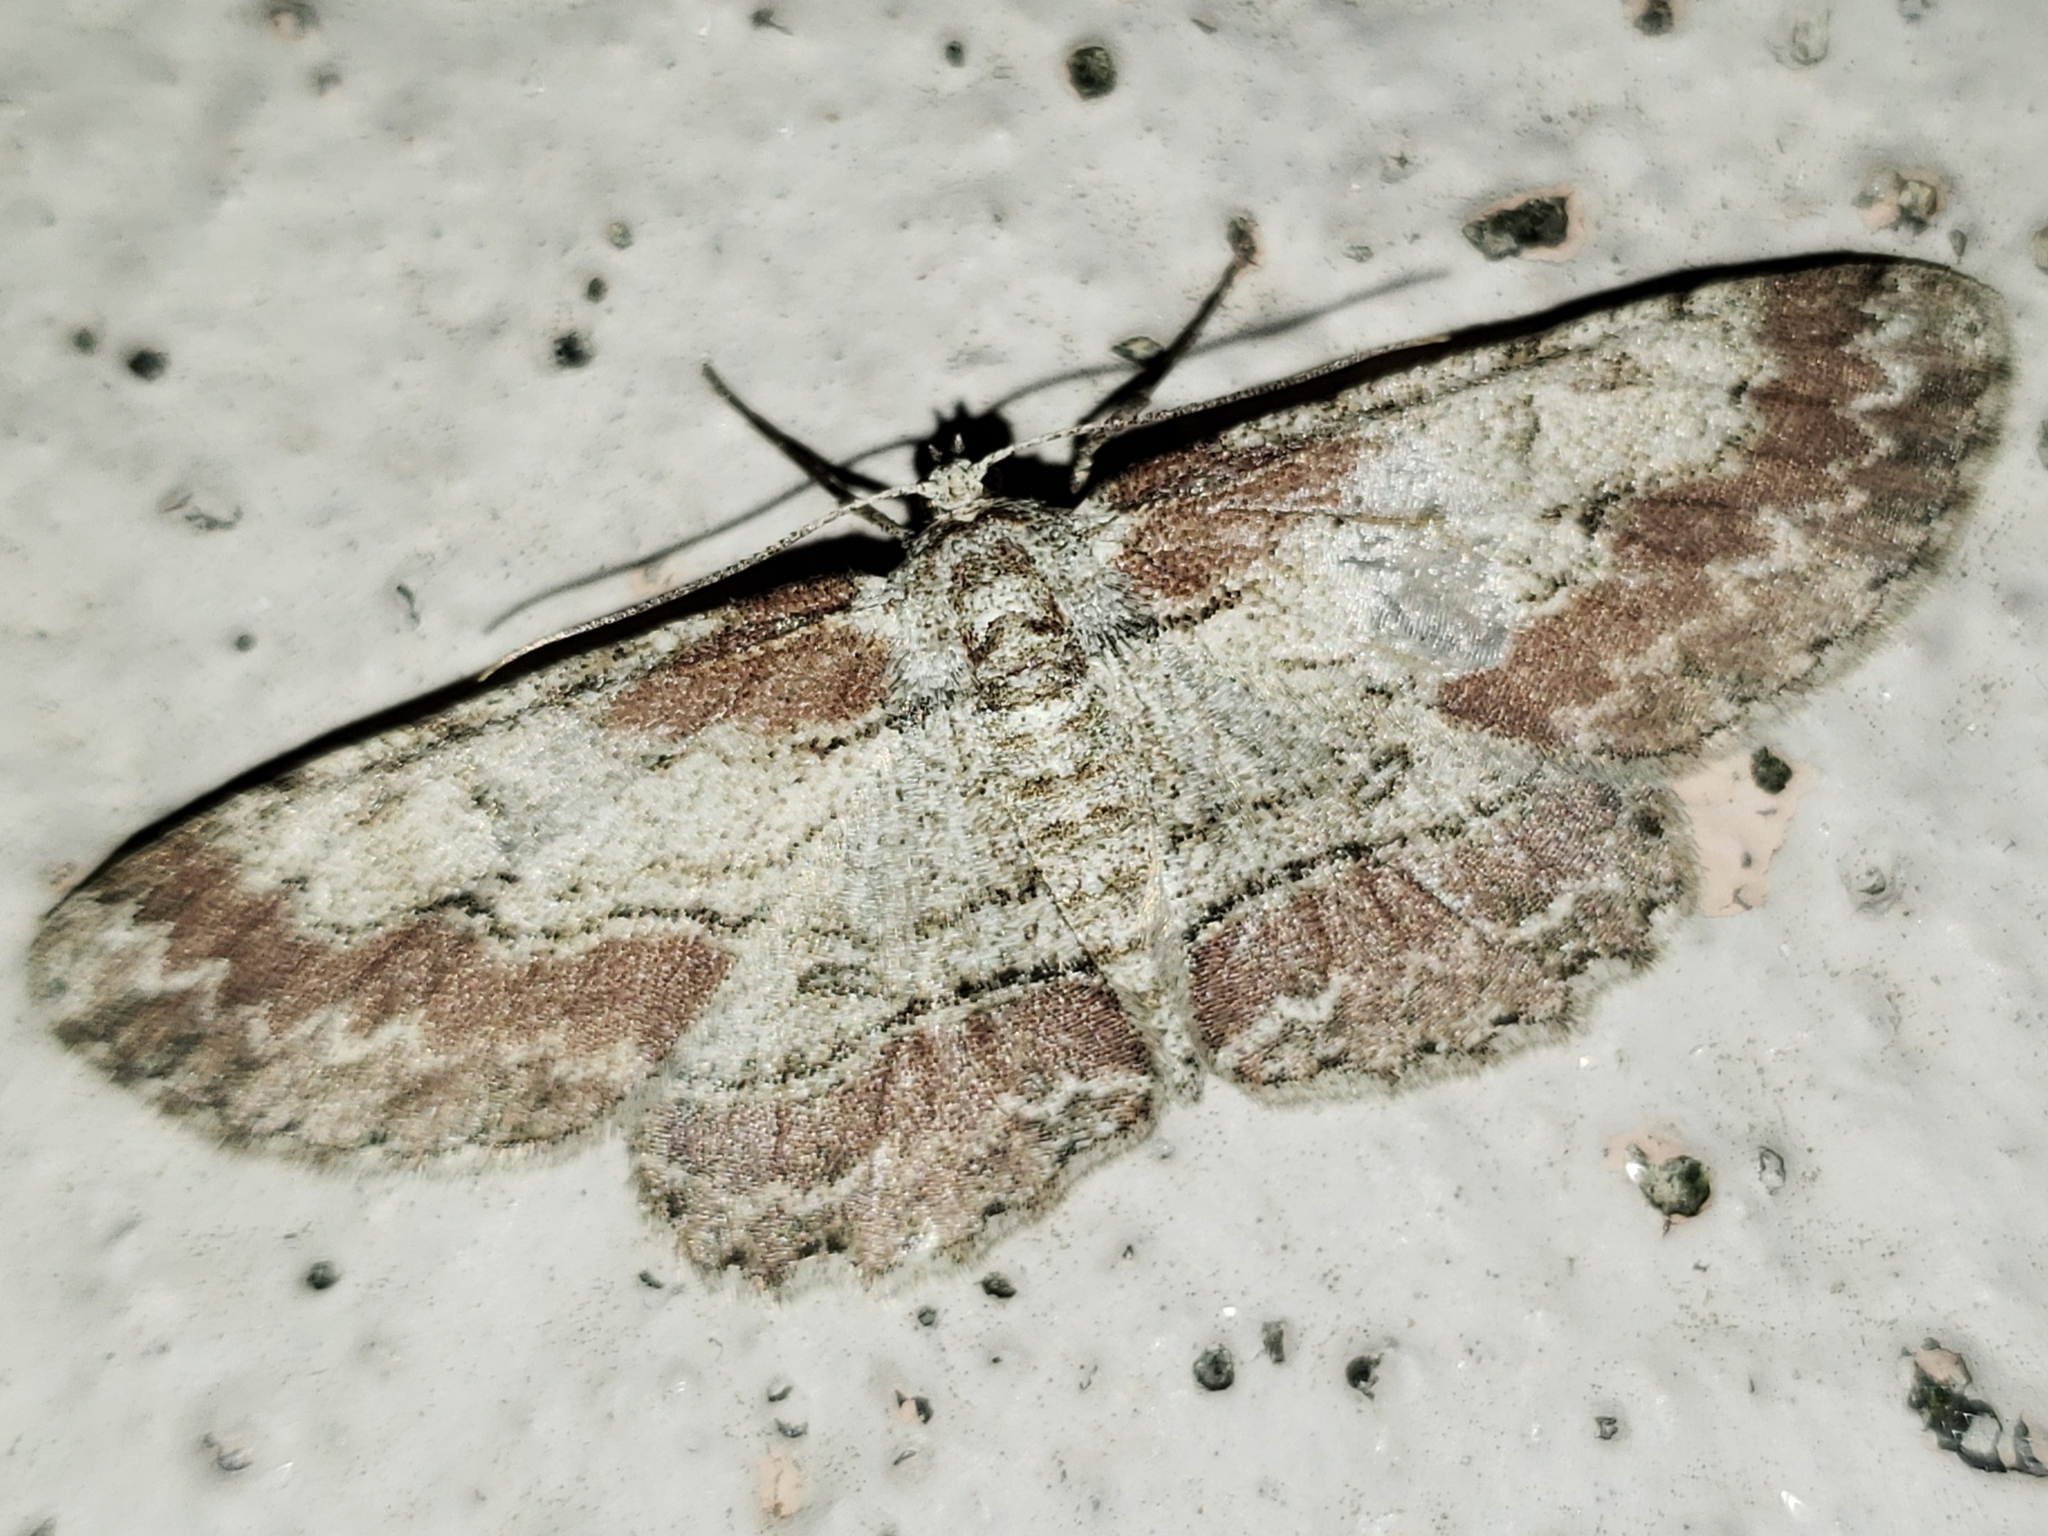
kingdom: Animalia
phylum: Arthropoda
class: Insecta
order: Lepidoptera
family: Geometridae
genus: Iridopsis
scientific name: Iridopsis pergracilis
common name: Cypress looper
